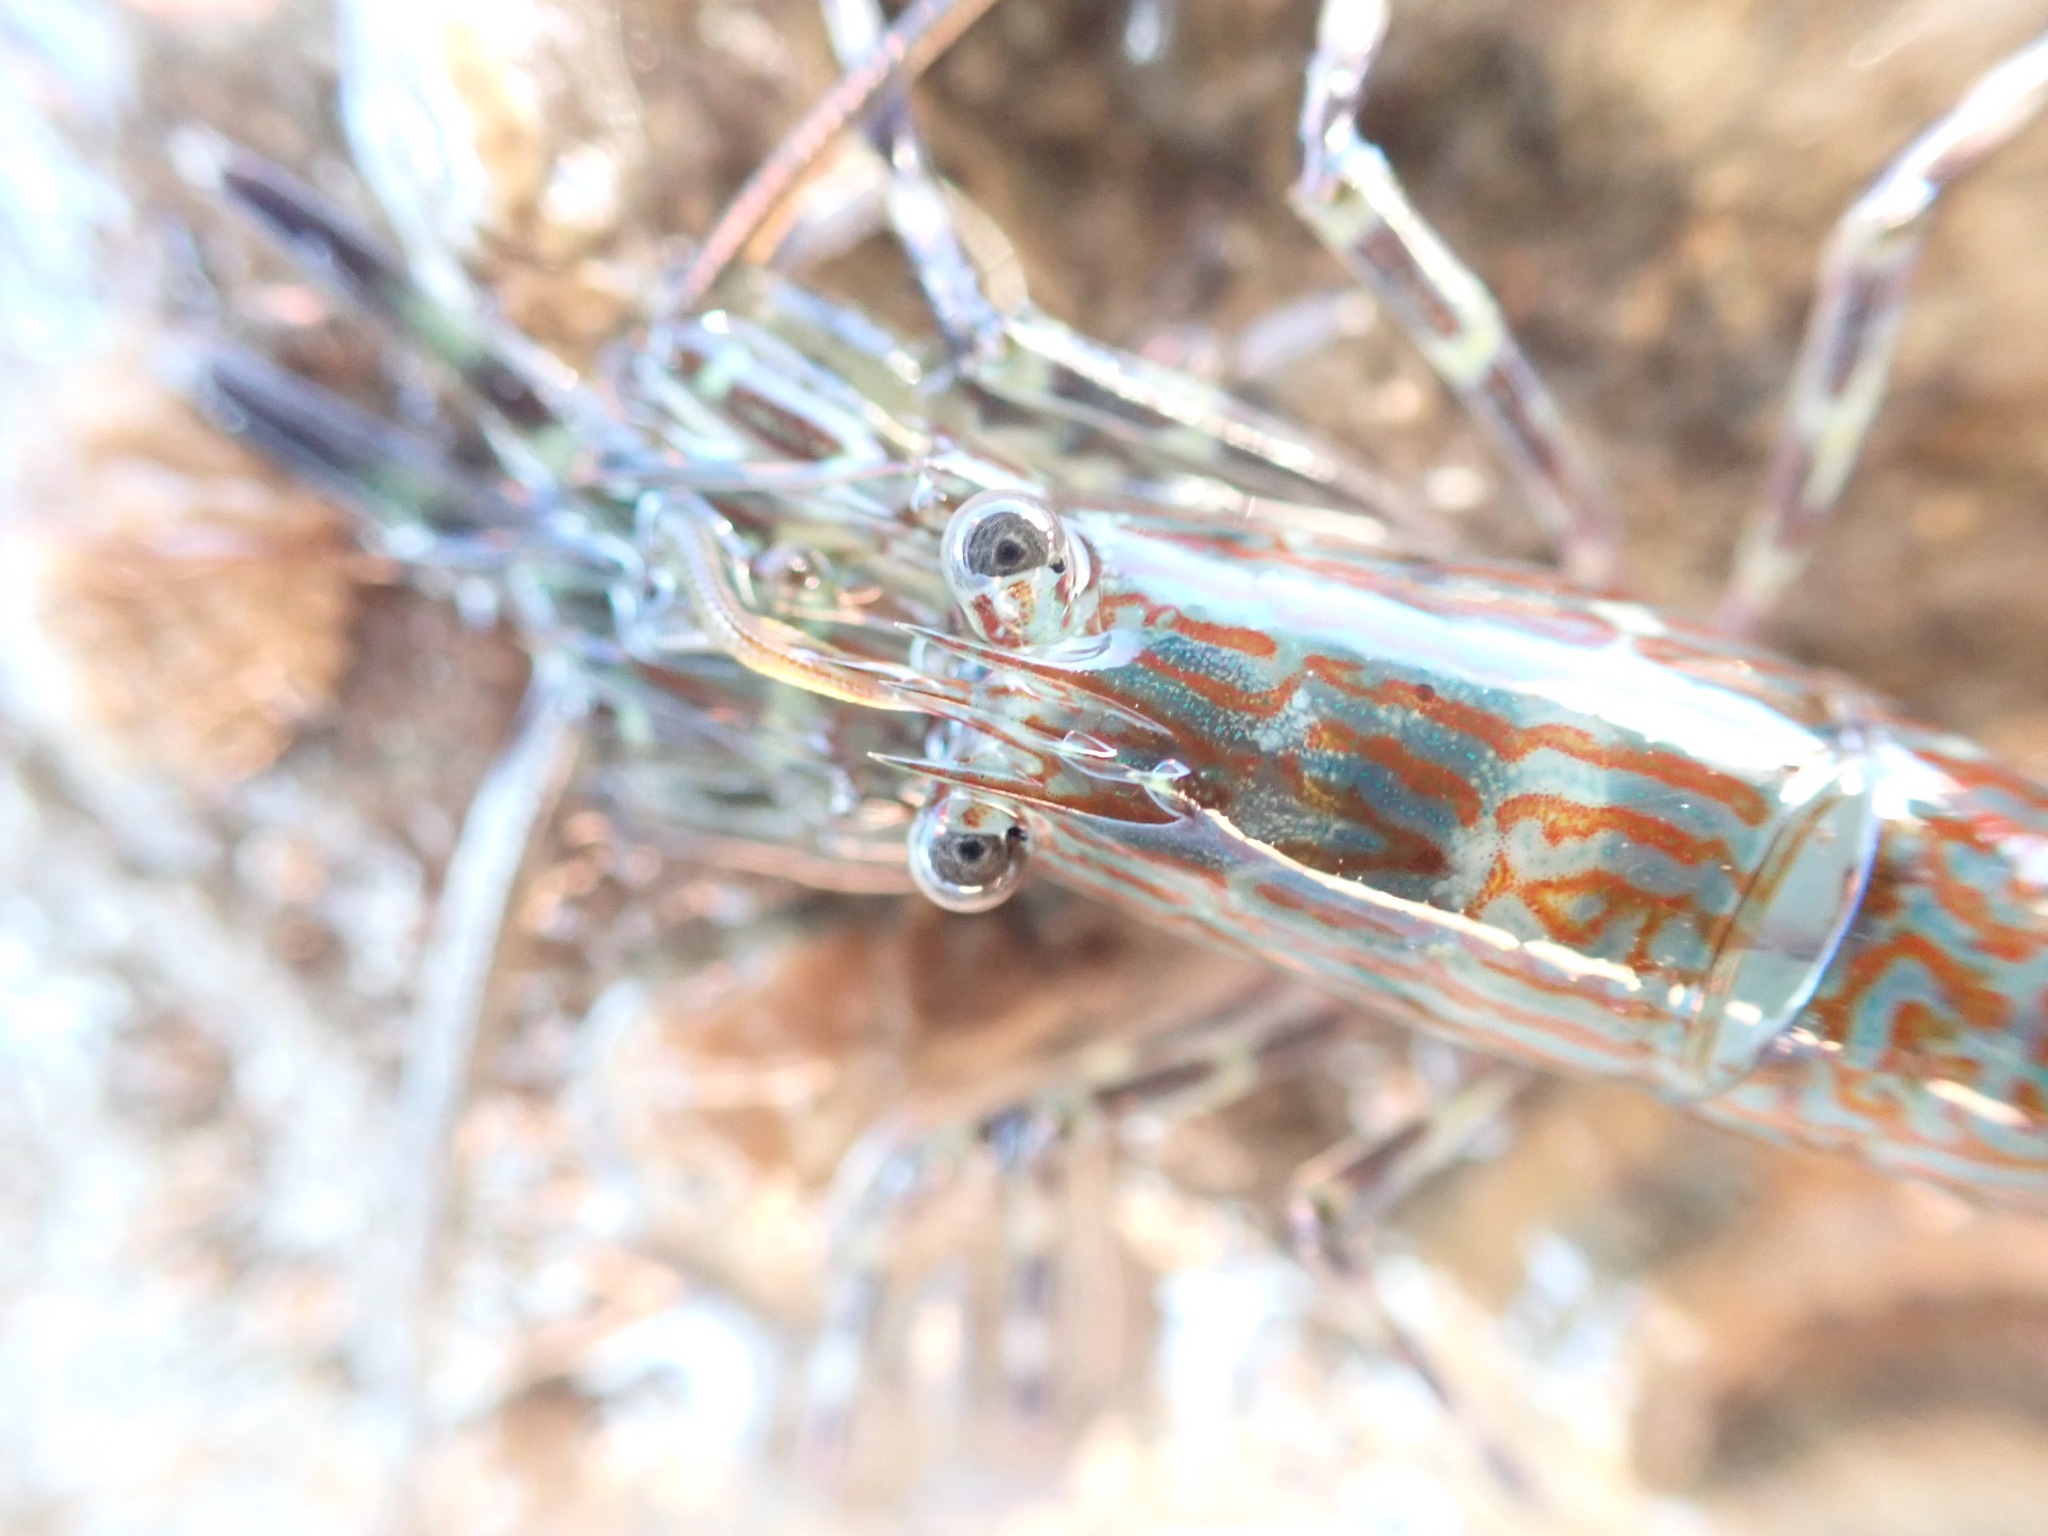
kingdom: Animalia
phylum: Arthropoda
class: Malacostraca
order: Decapoda
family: Hippolytidae
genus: Alope
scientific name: Alope spinifrons
